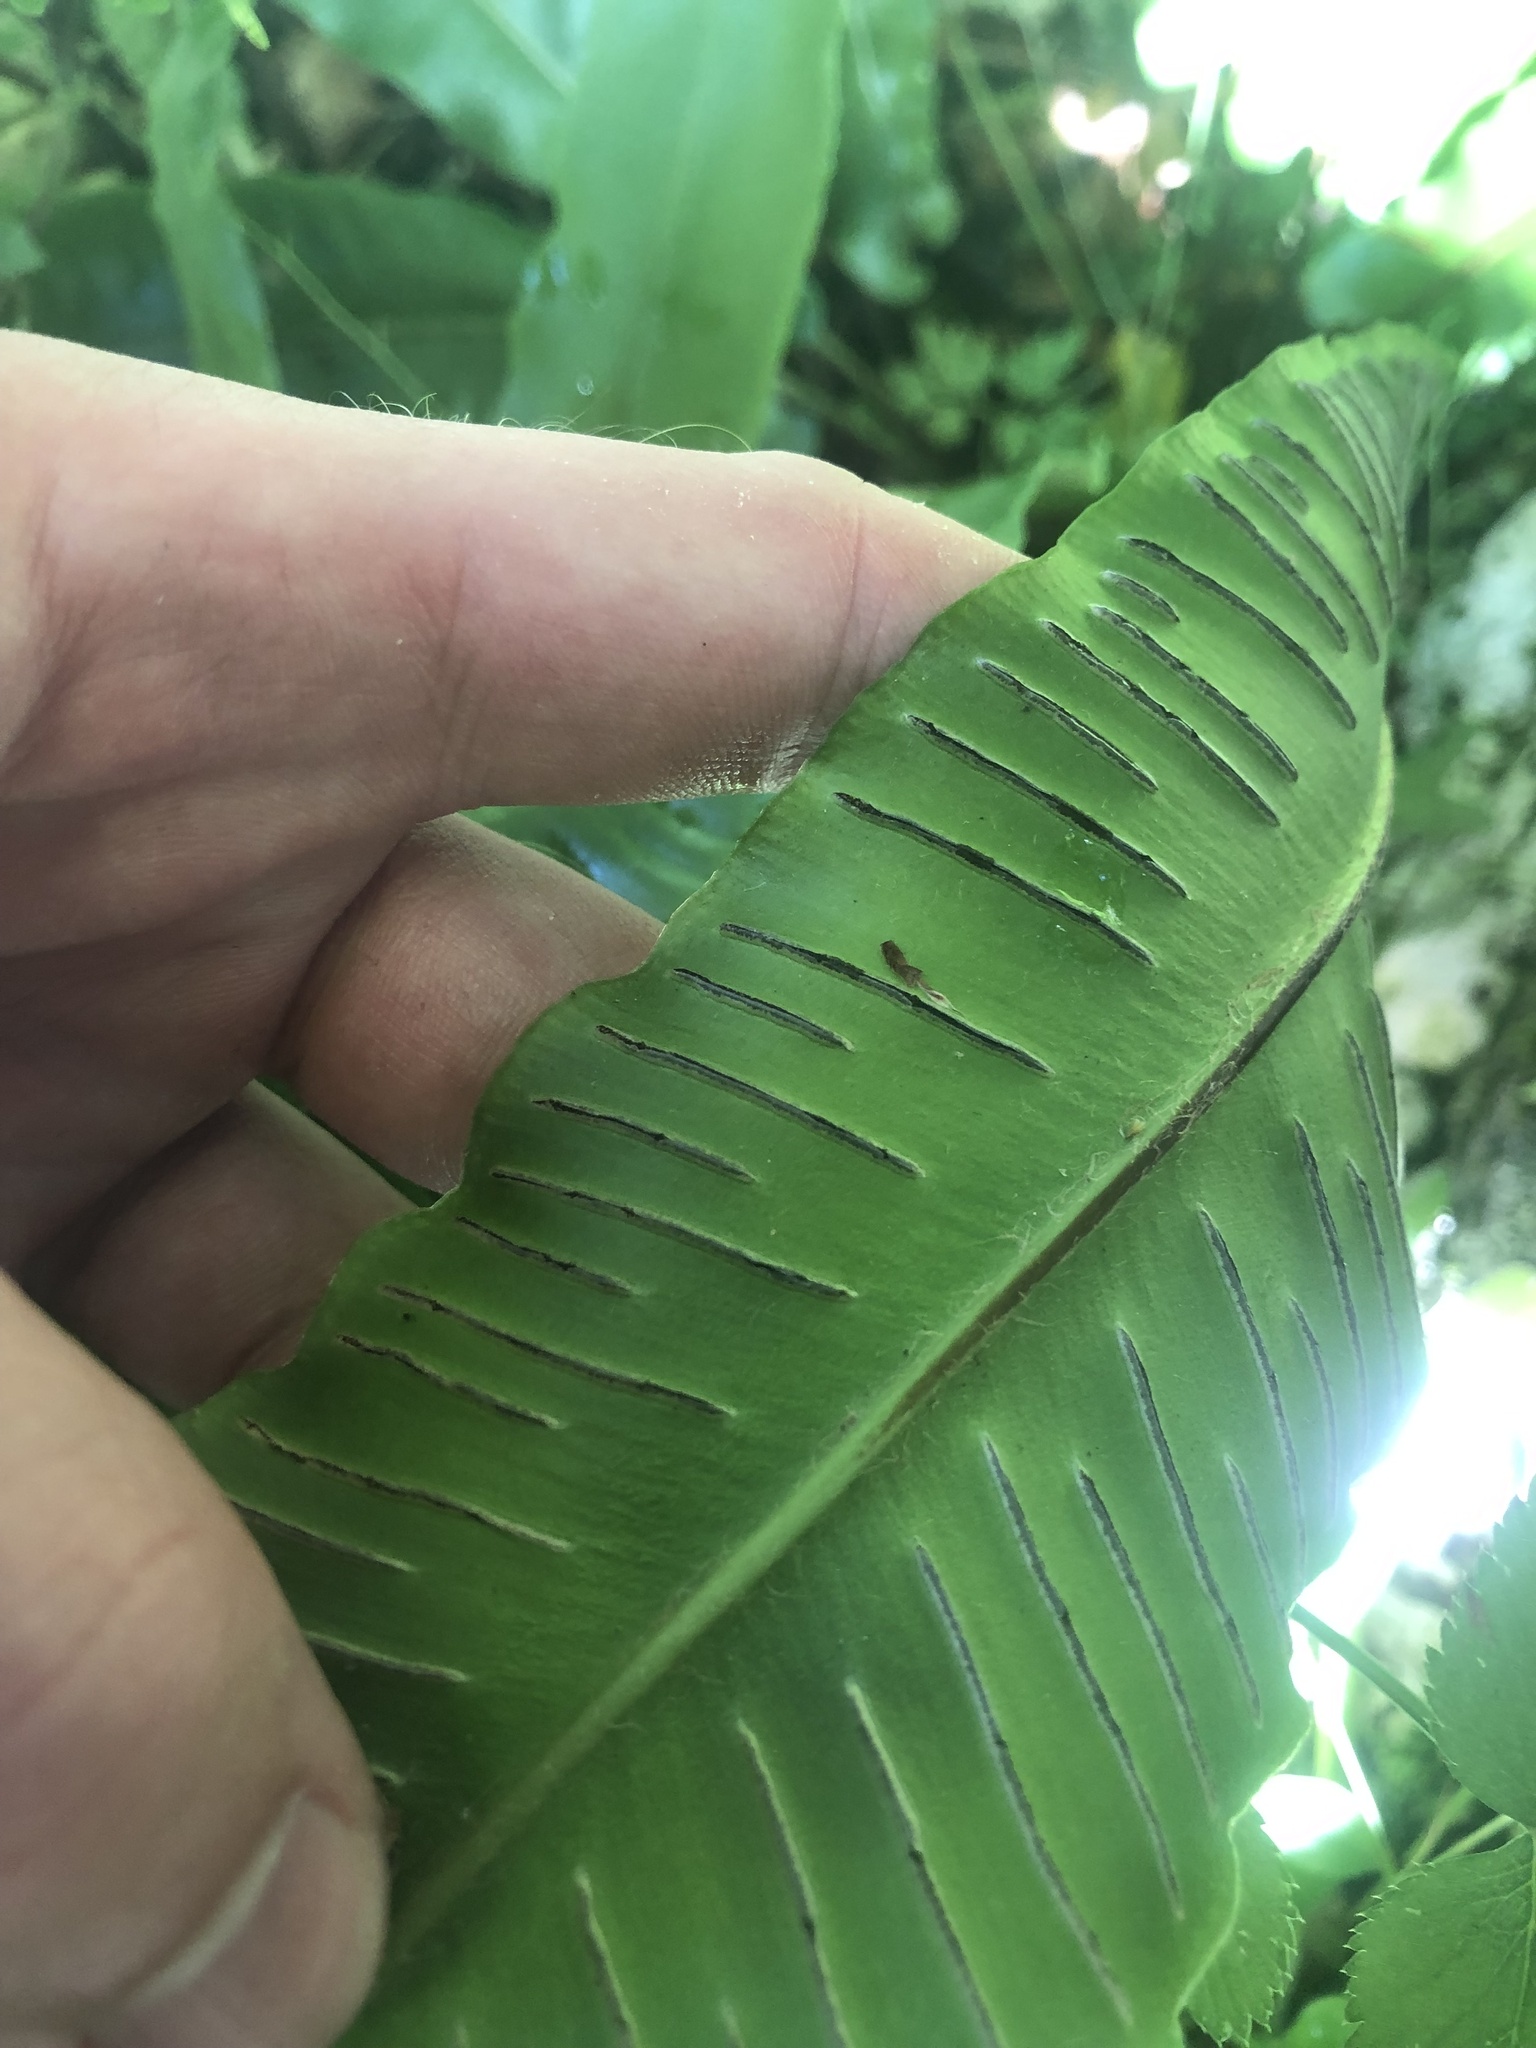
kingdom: Plantae
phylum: Tracheophyta
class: Polypodiopsida
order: Polypodiales
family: Aspleniaceae
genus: Asplenium
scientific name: Asplenium scolopendrium
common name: Hart's-tongue fern
